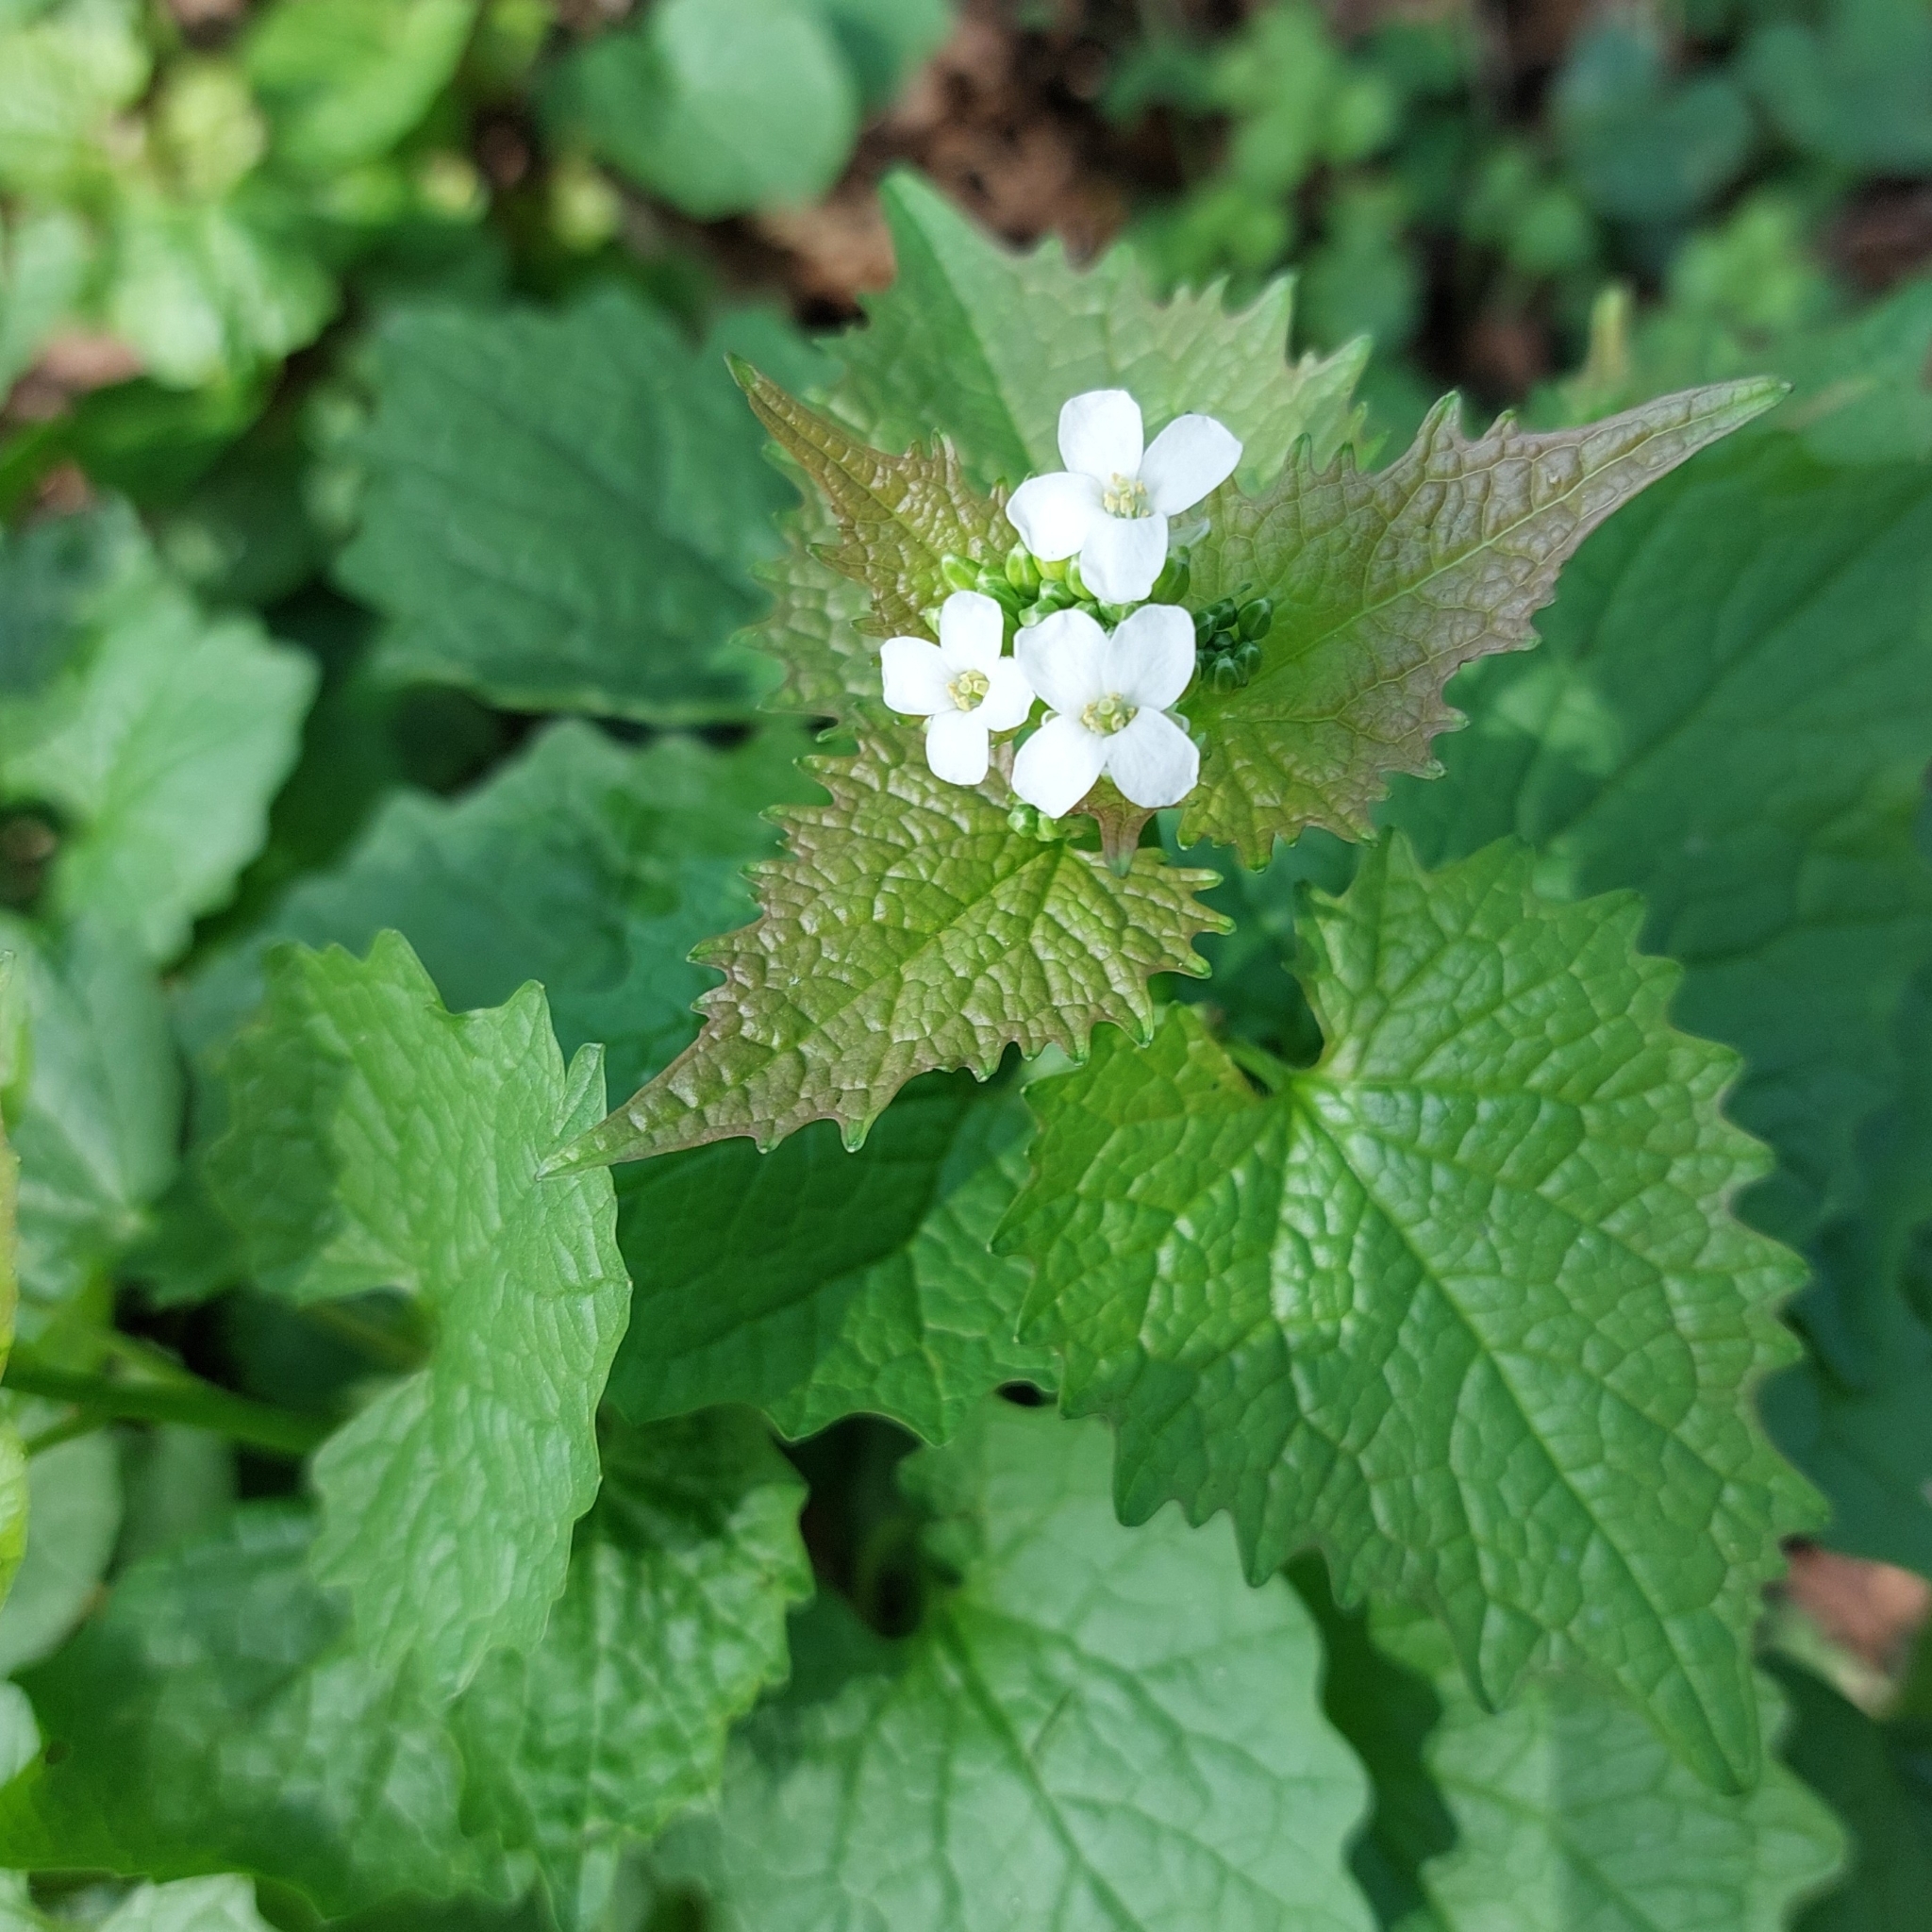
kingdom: Plantae
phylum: Tracheophyta
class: Magnoliopsida
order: Brassicales
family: Brassicaceae
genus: Alliaria
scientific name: Alliaria petiolata
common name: Garlic mustard
